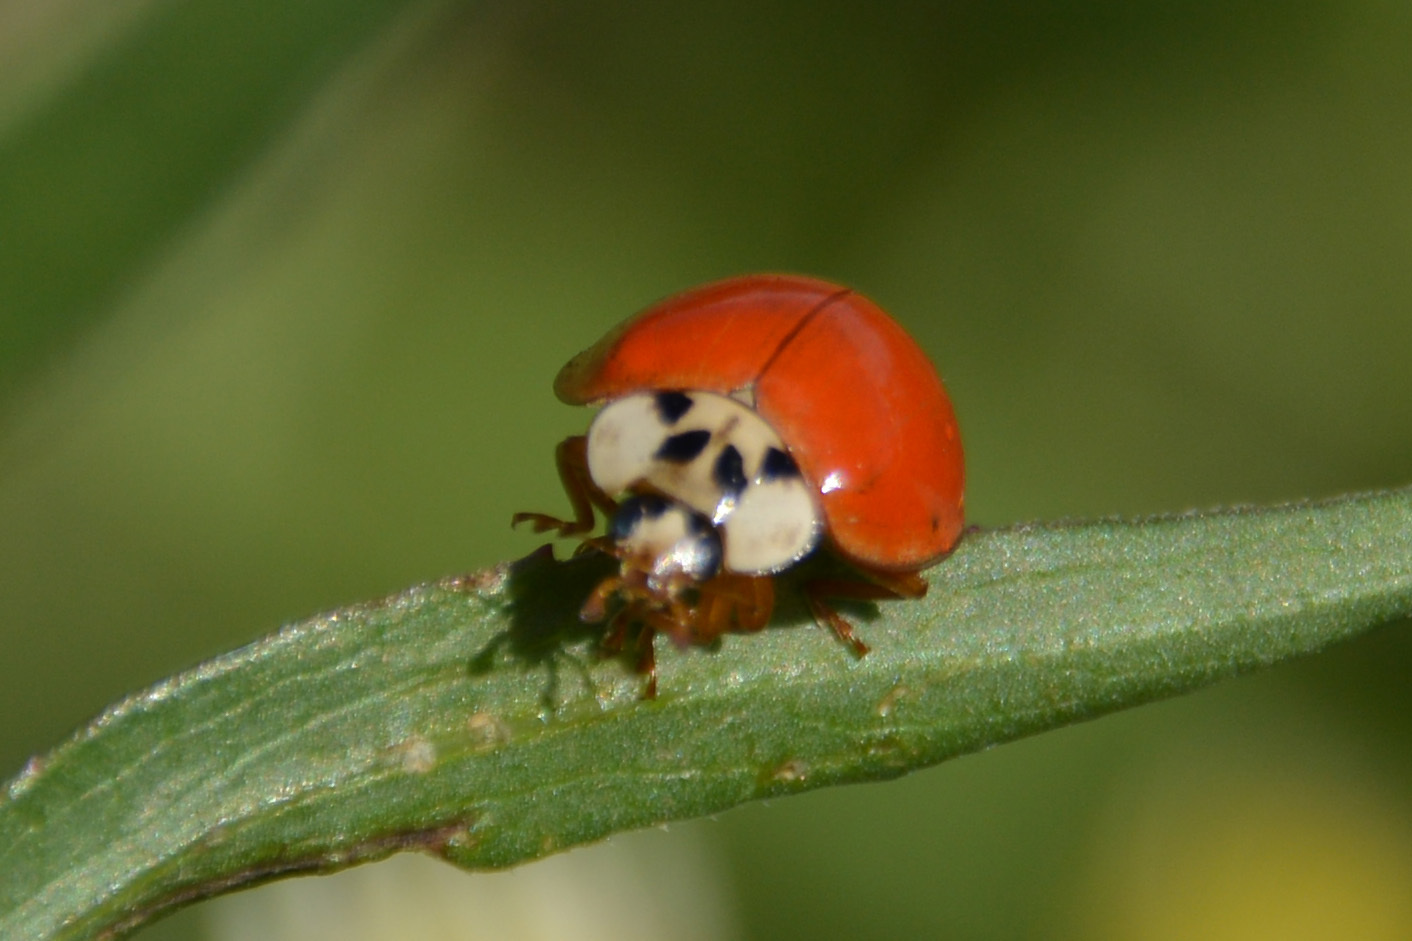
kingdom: Animalia
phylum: Arthropoda
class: Insecta
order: Coleoptera
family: Coccinellidae
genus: Harmonia
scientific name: Harmonia axyridis
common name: Harlequin ladybird
